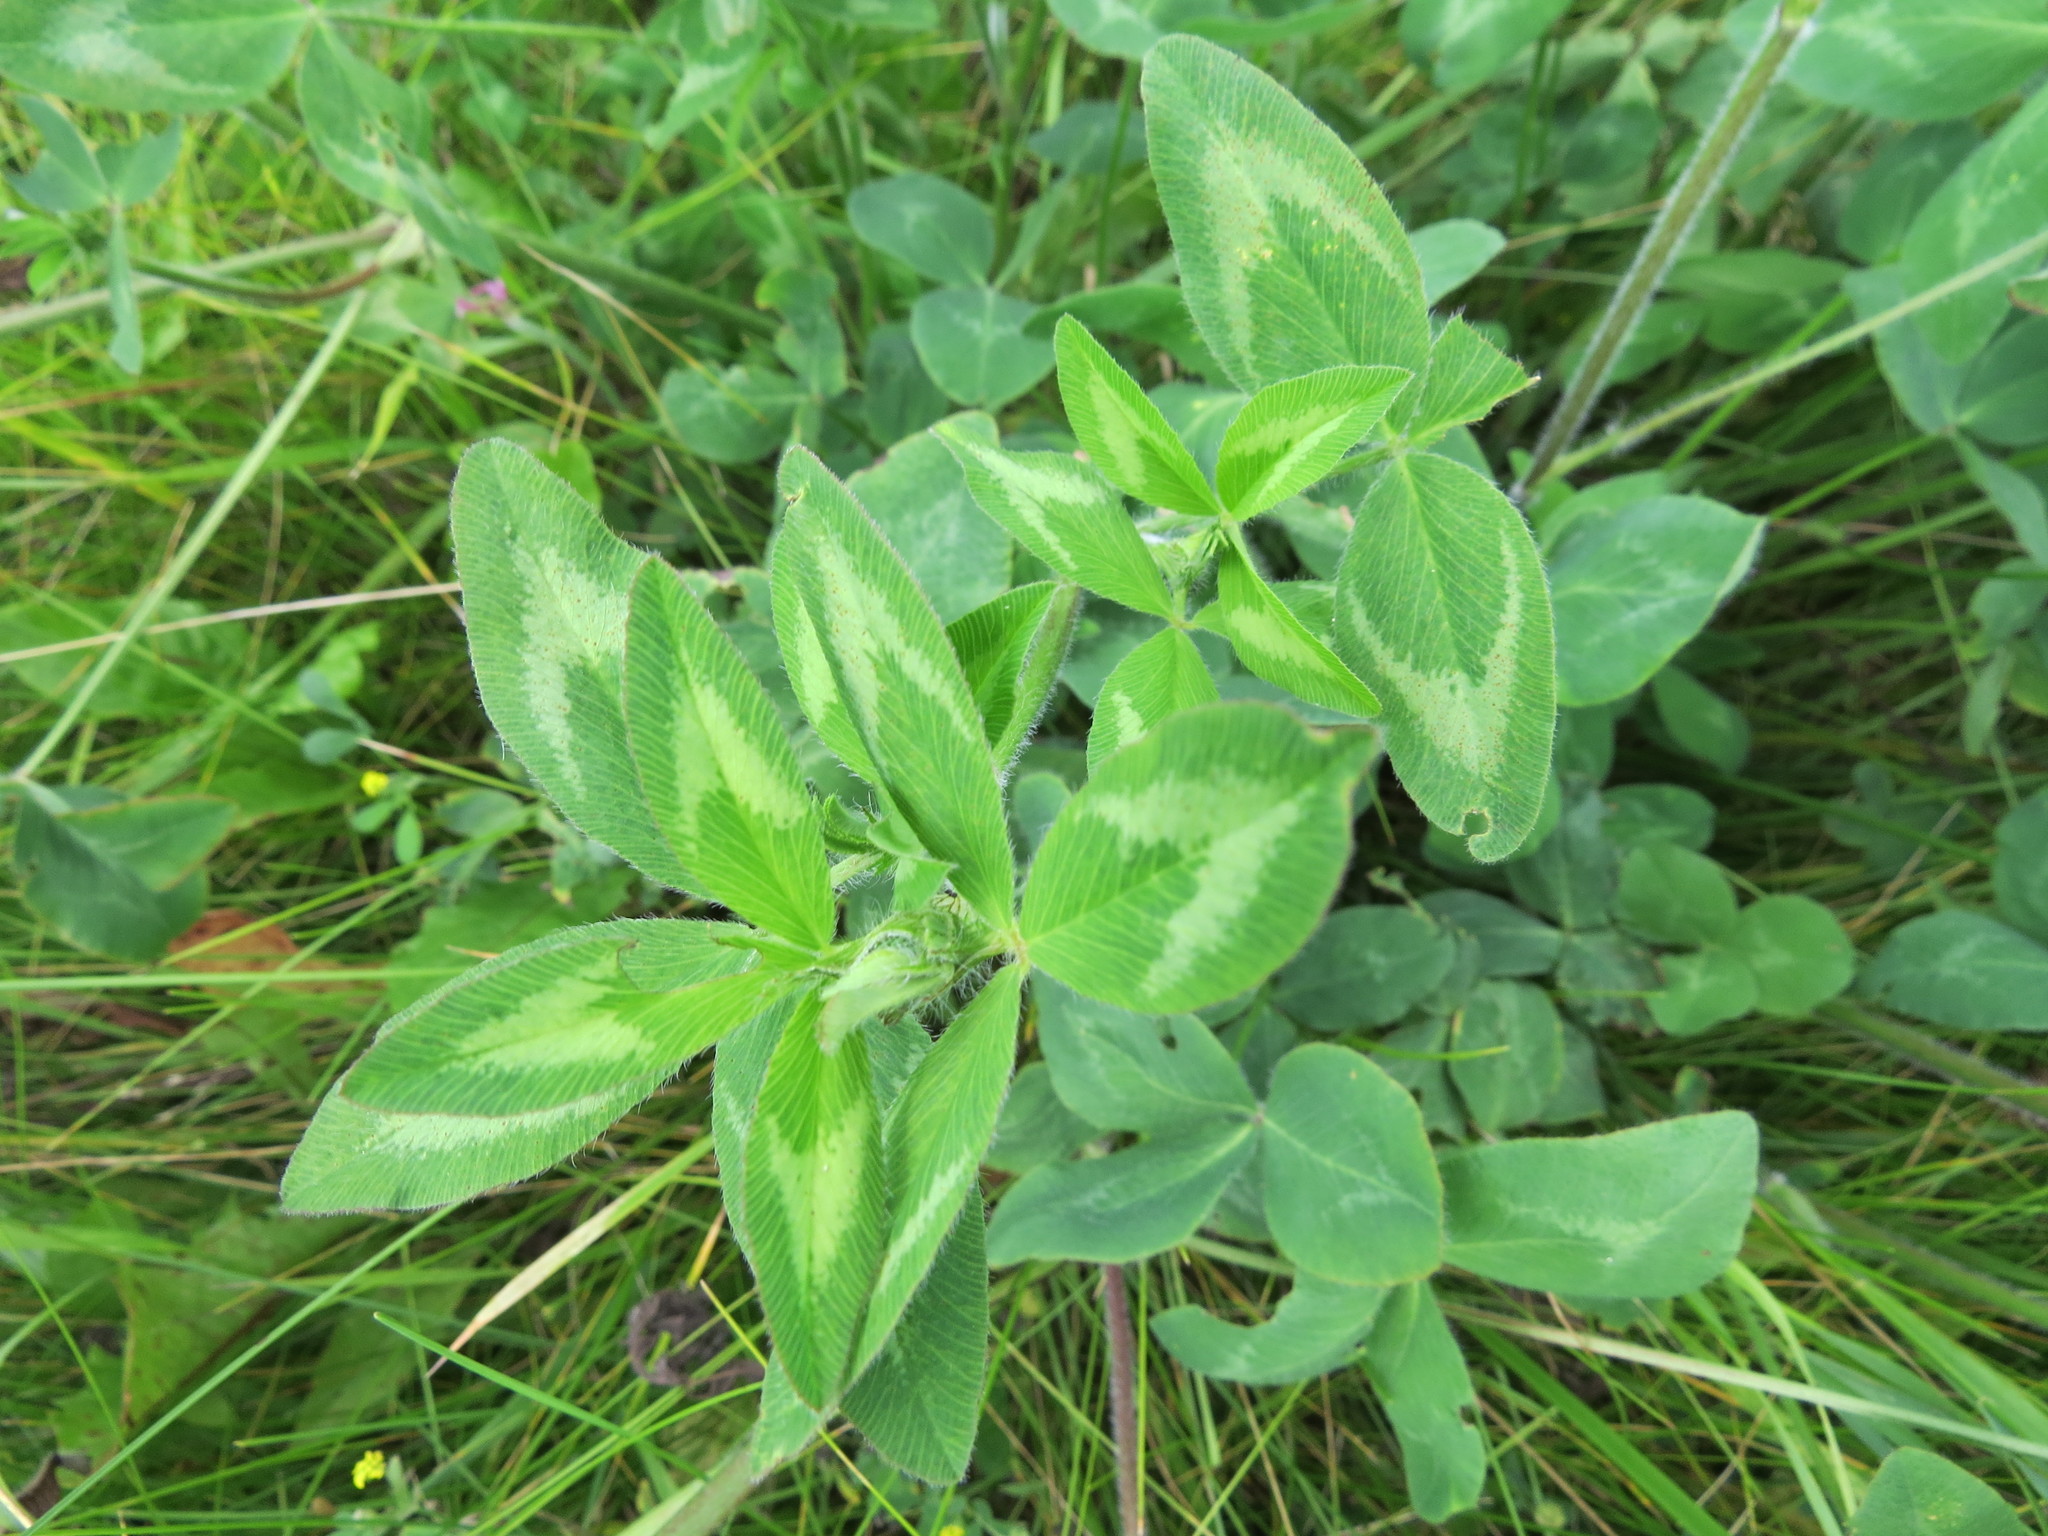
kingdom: Plantae
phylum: Tracheophyta
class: Magnoliopsida
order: Fabales
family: Fabaceae
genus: Trifolium
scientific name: Trifolium pratense
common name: Red clover
